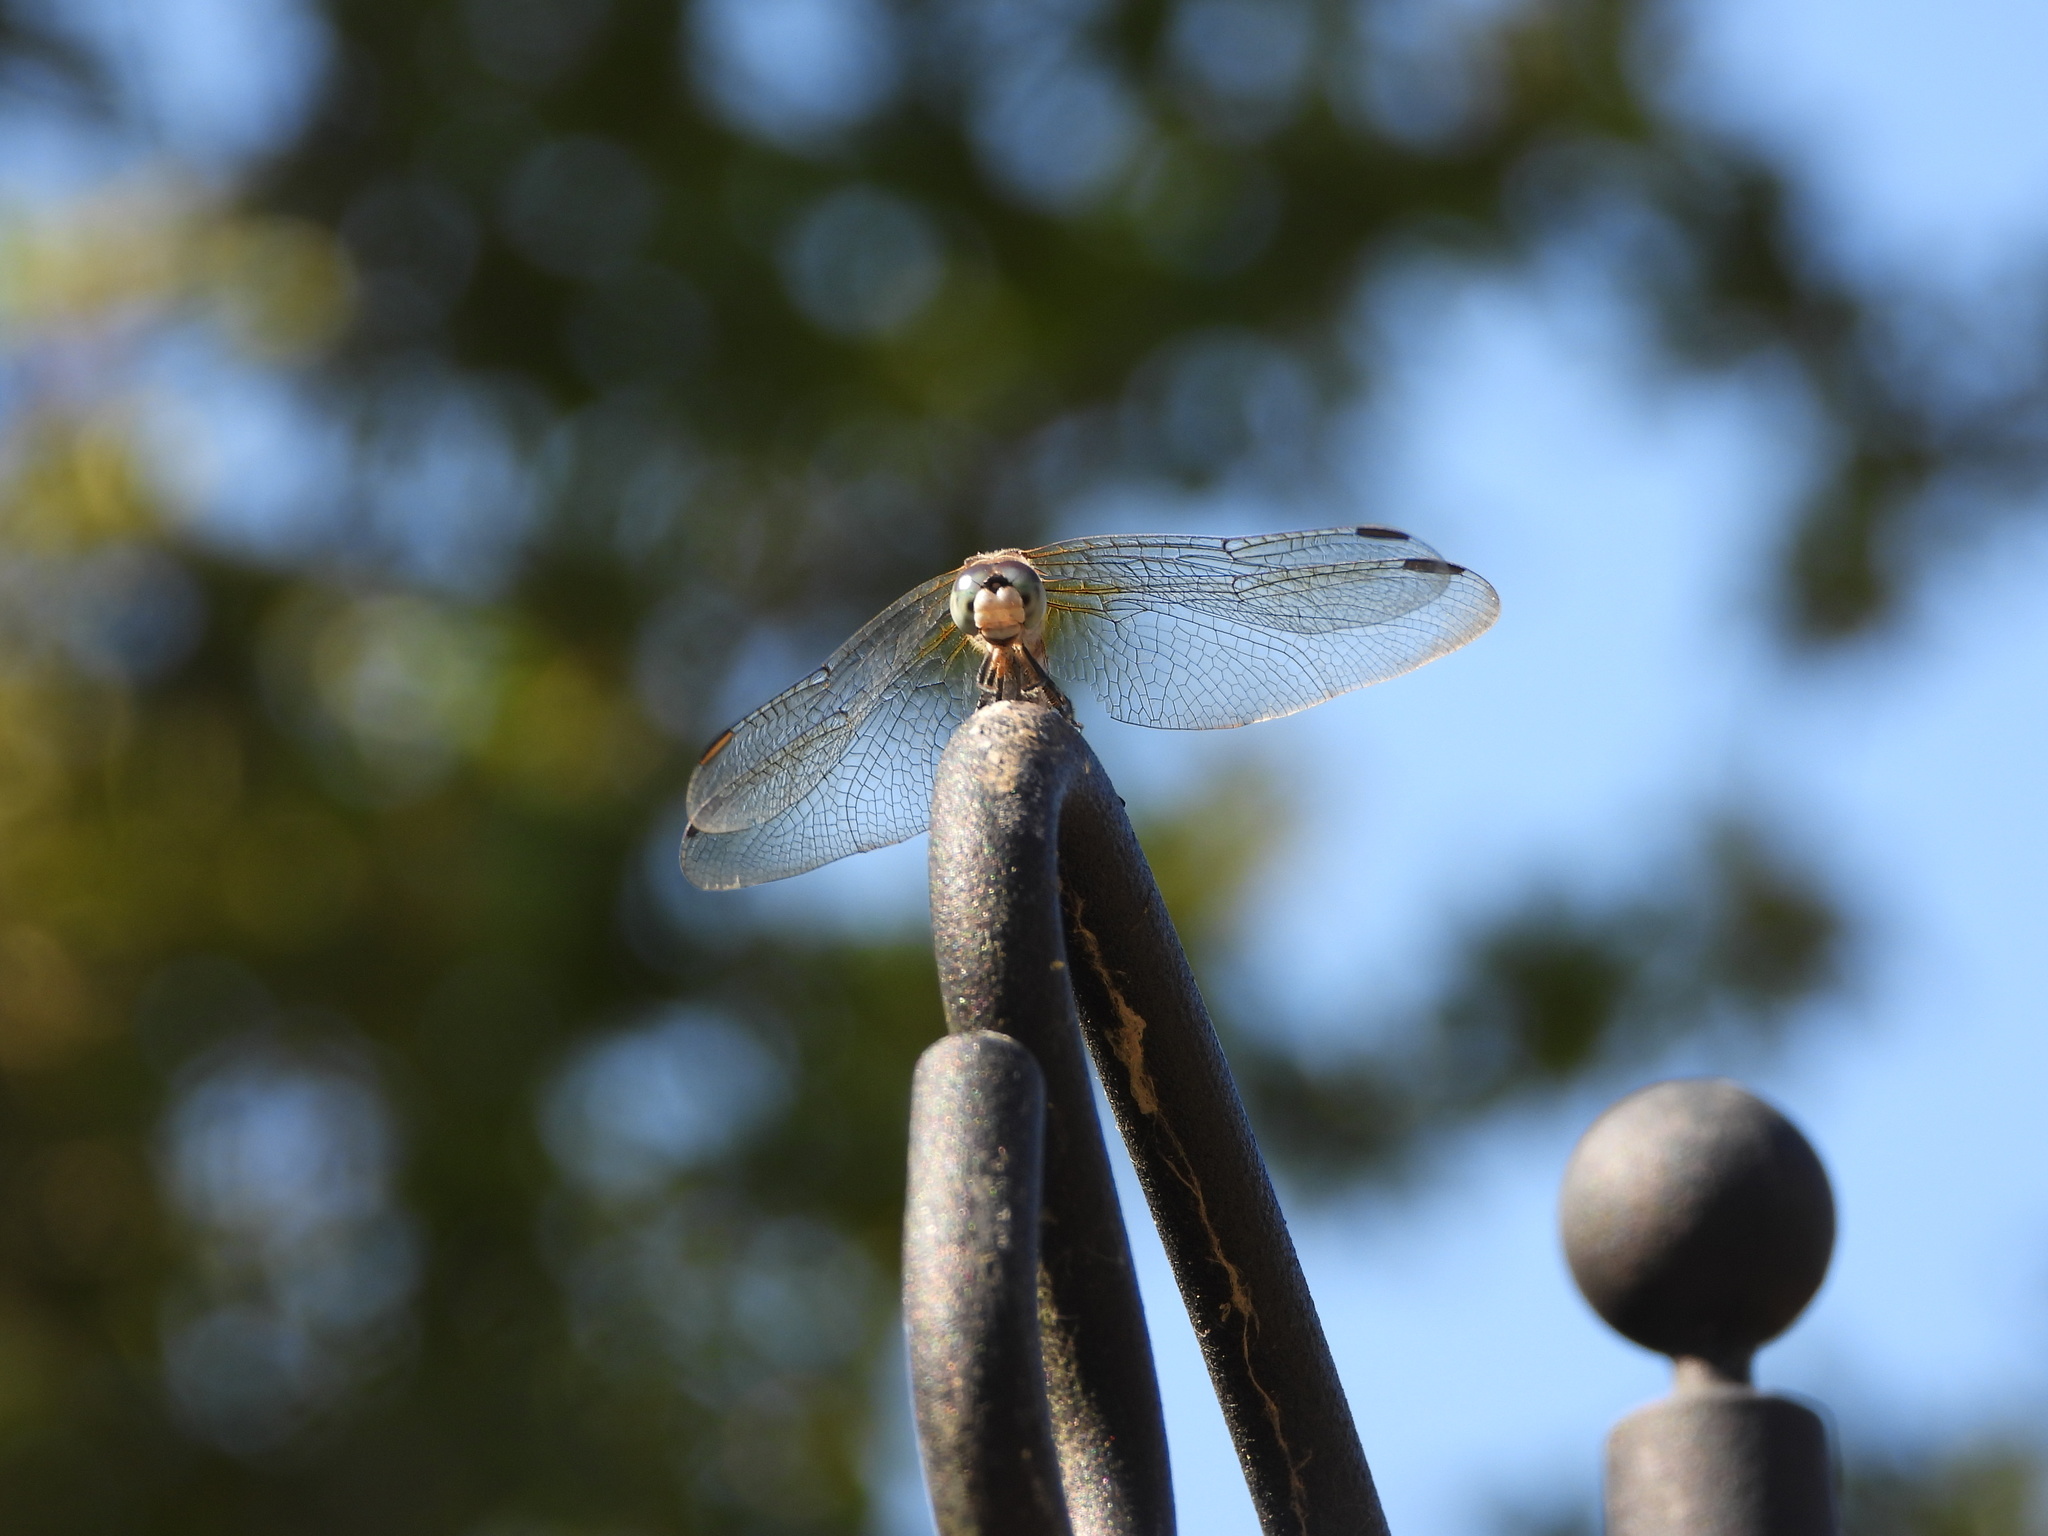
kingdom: Animalia
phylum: Arthropoda
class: Insecta
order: Odonata
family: Libellulidae
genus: Pachydiplax
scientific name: Pachydiplax longipennis
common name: Blue dasher
